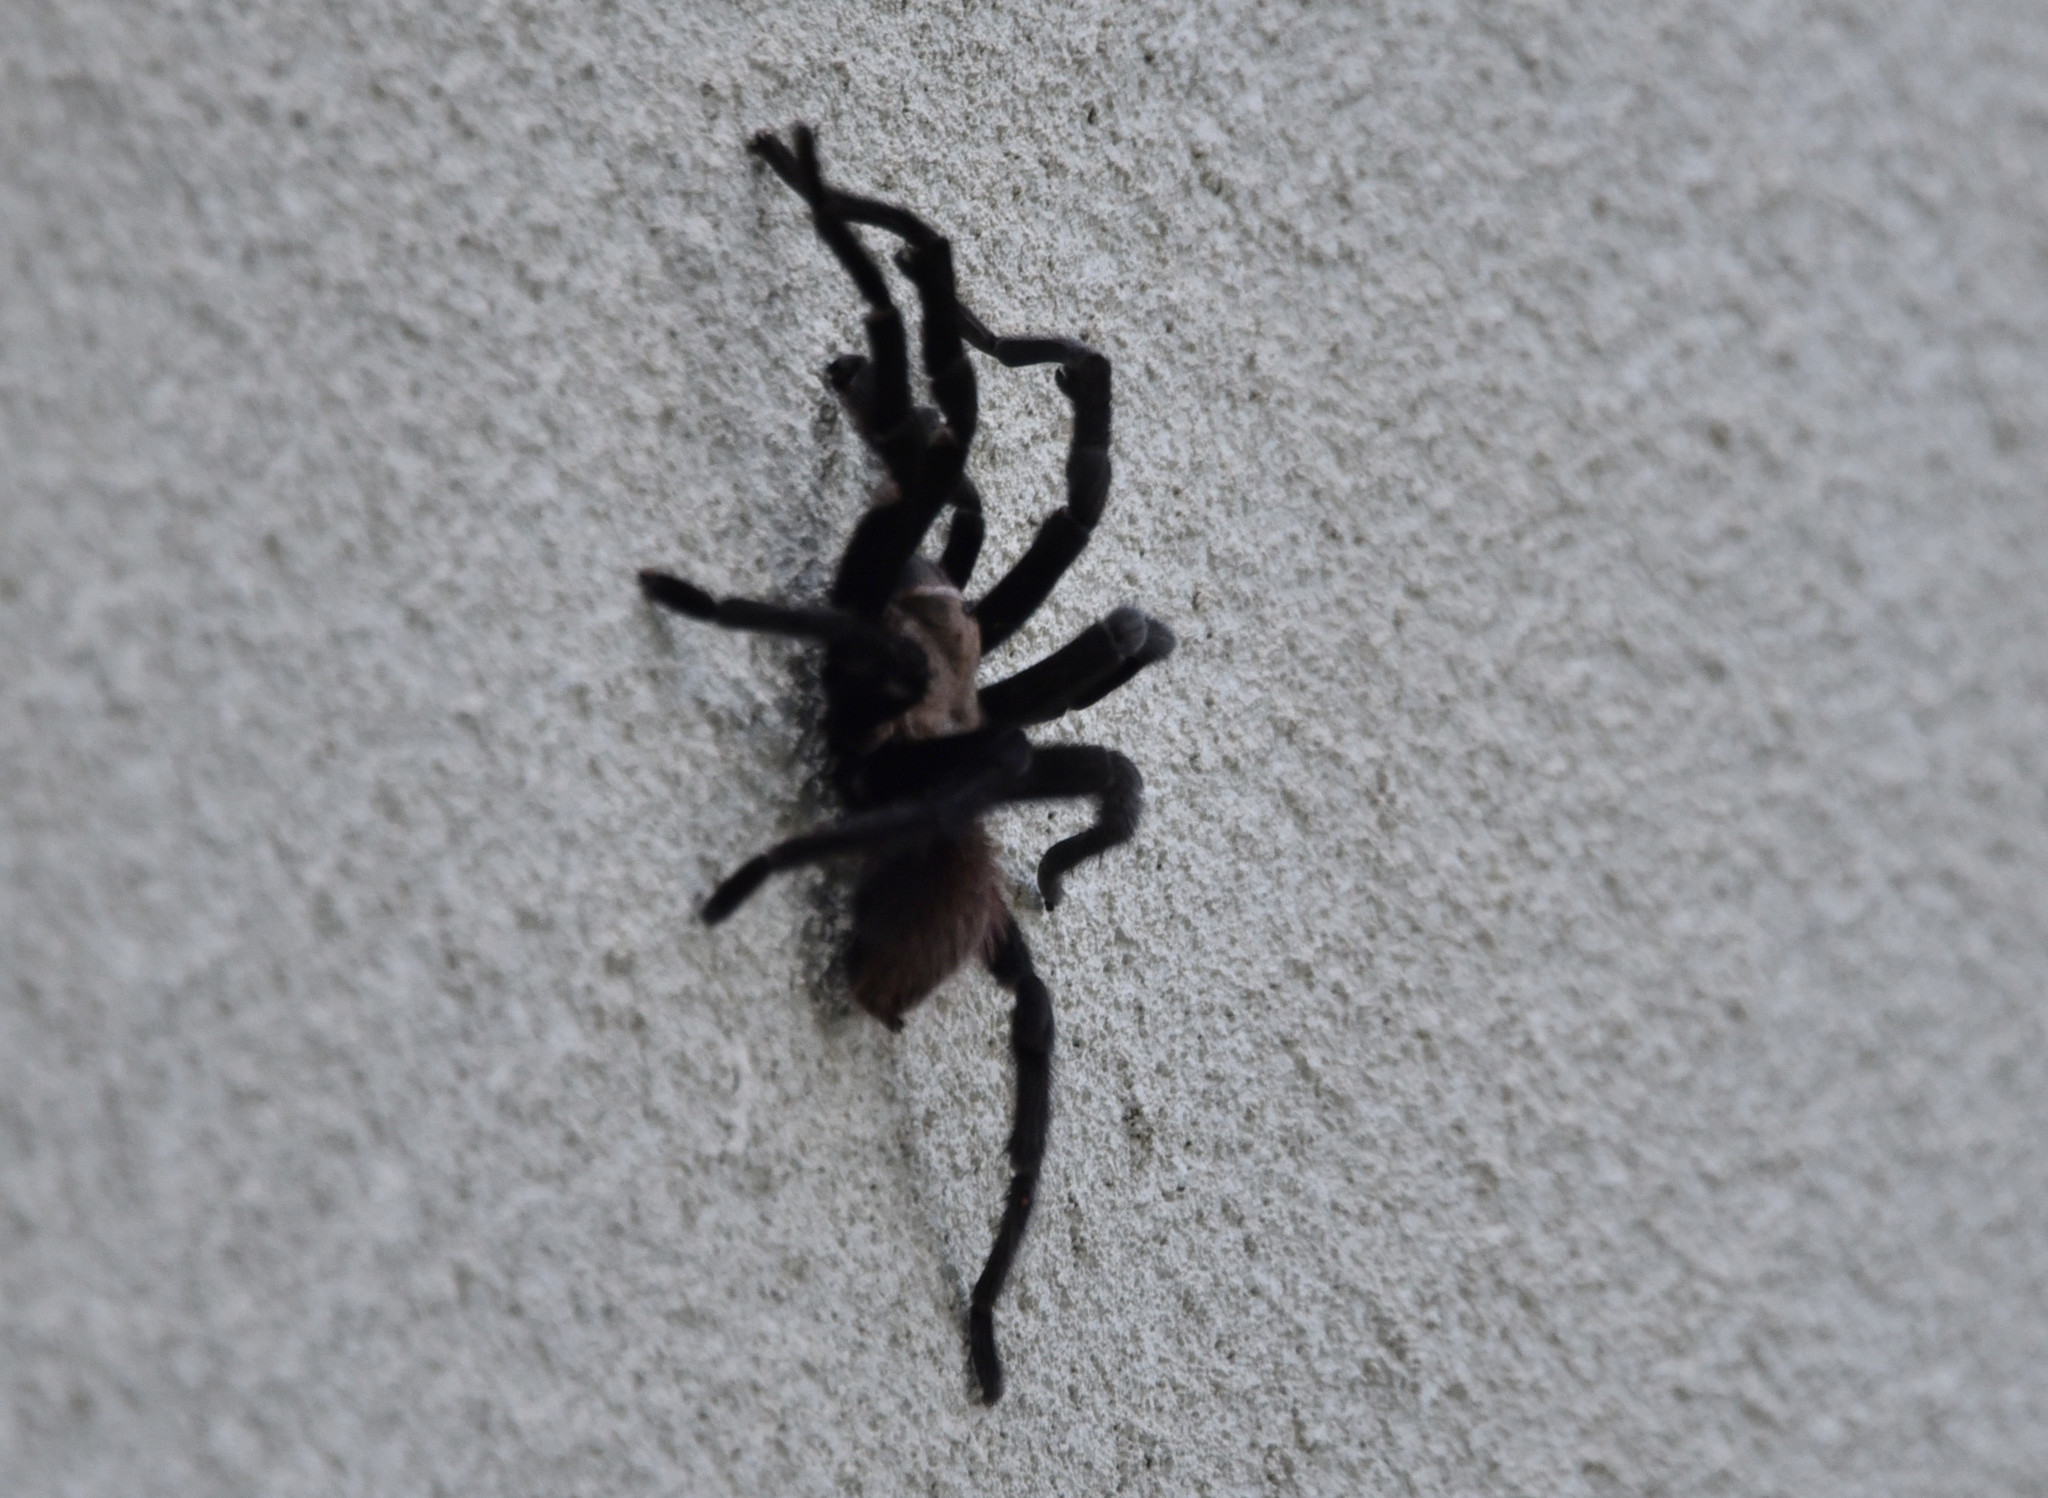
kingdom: Animalia
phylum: Arthropoda
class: Arachnida
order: Araneae
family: Theraphosidae
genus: Aphonopelma
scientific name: Aphonopelma anax
